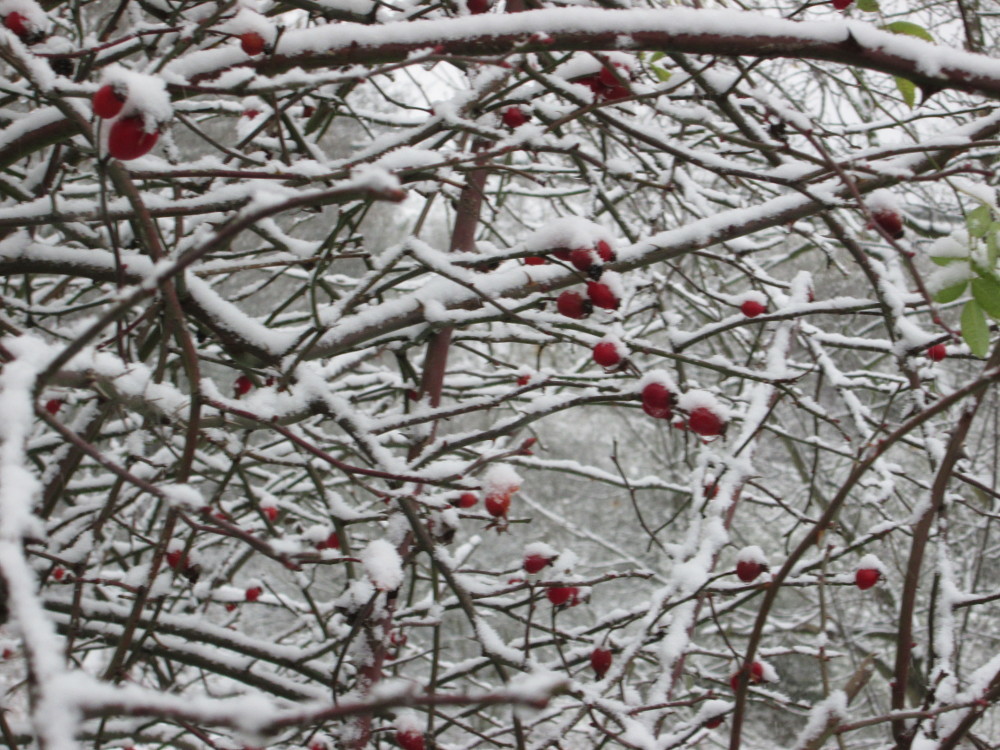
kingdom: Plantae
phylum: Tracheophyta
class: Magnoliopsida
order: Rosales
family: Rosaceae
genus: Rosa
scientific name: Rosa canina
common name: Dog rose
